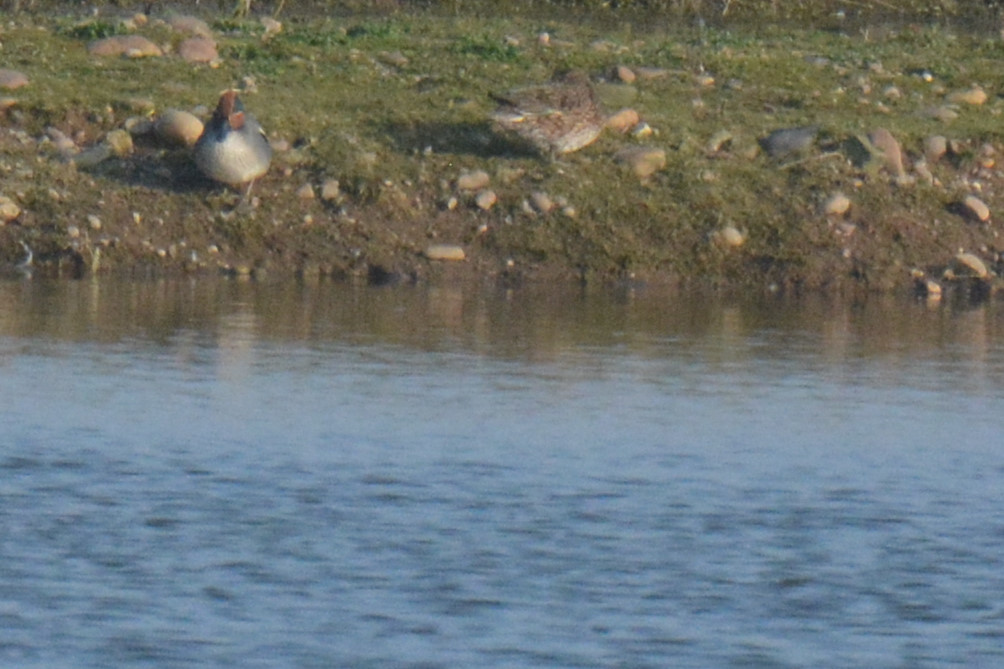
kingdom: Animalia
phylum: Chordata
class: Aves
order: Anseriformes
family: Anatidae
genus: Anas
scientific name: Anas crecca
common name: Eurasian teal
